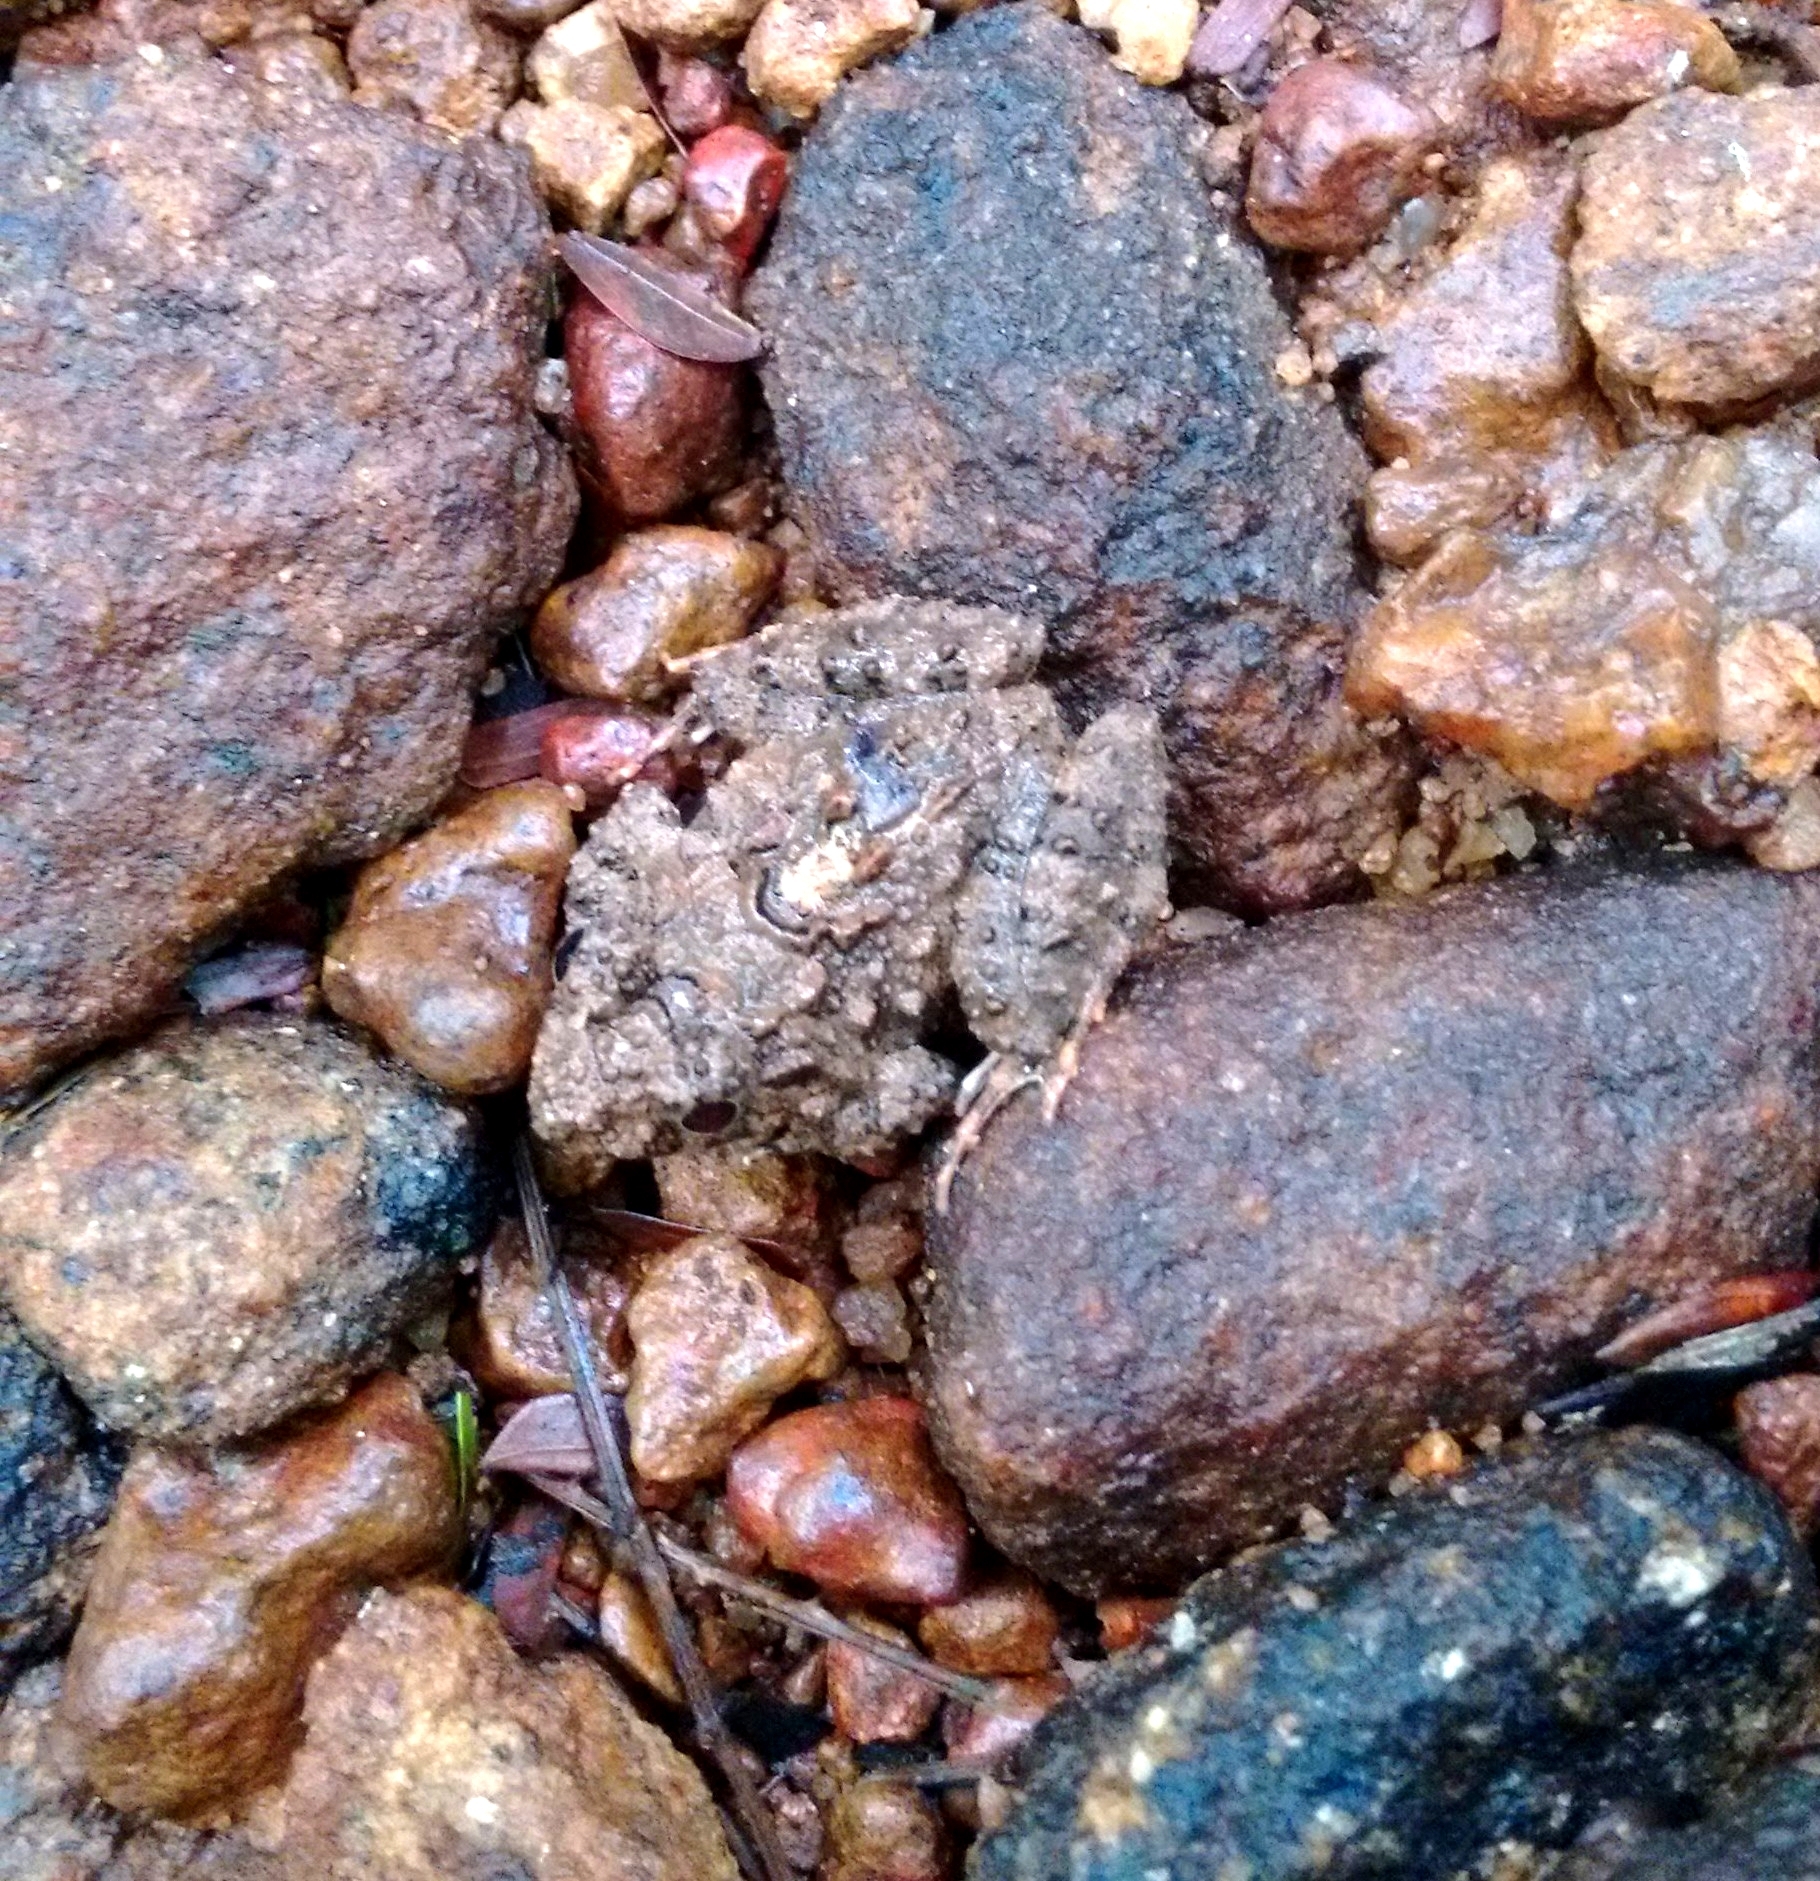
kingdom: Animalia
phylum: Chordata
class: Amphibia
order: Anura
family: Dicroglossidae
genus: Minervarya
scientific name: Minervarya keralensis
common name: Dubois' hill frog
